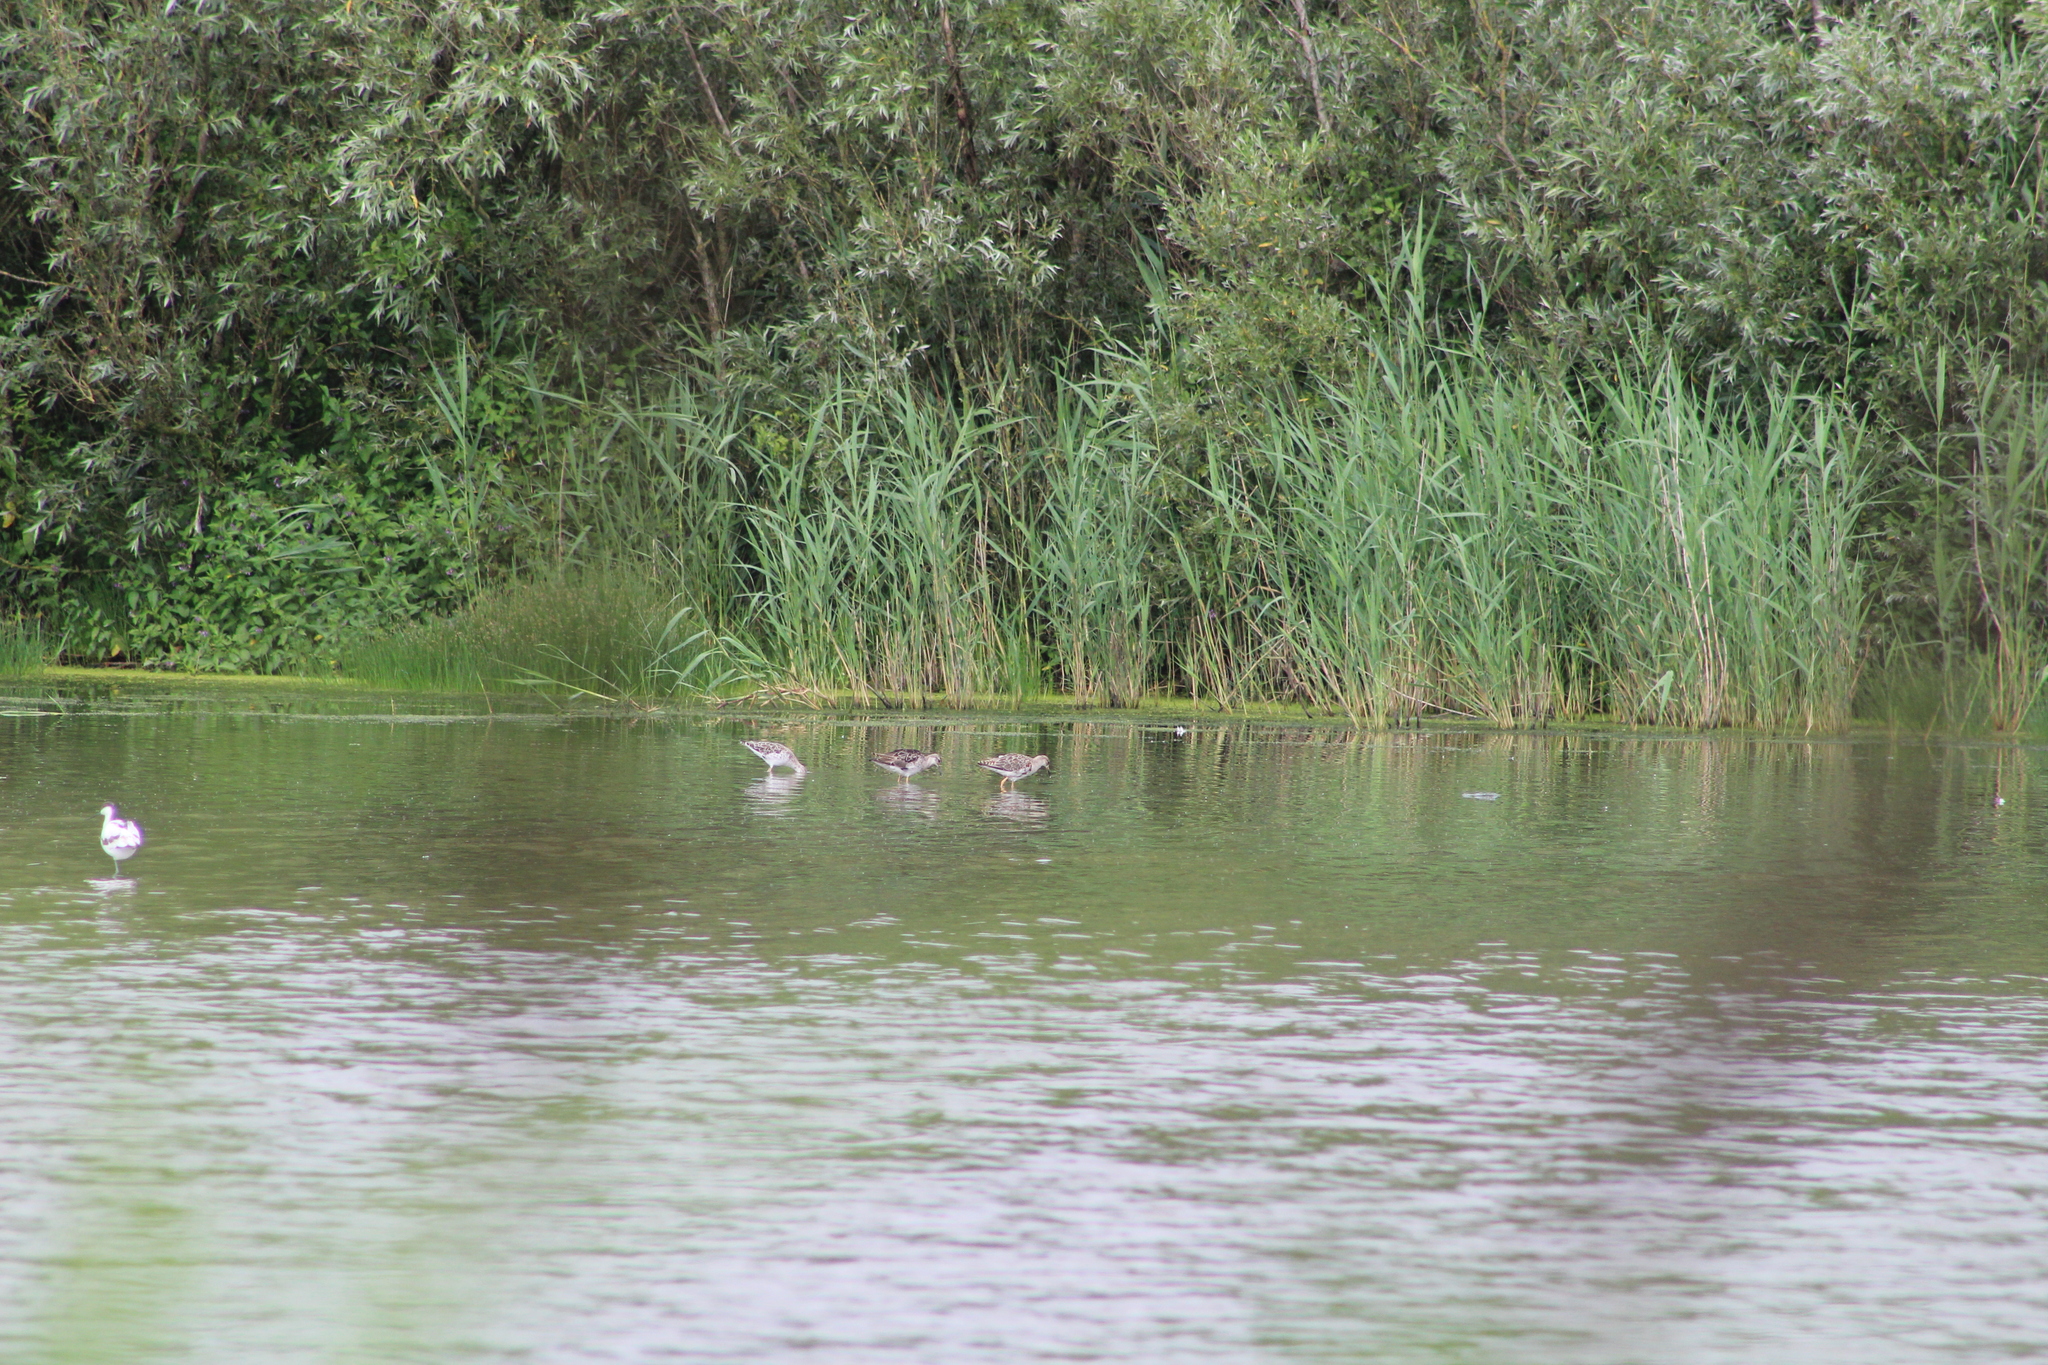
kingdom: Animalia
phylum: Chordata
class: Aves
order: Charadriiformes
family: Scolopacidae
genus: Calidris
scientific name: Calidris pugnax
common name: Ruff
